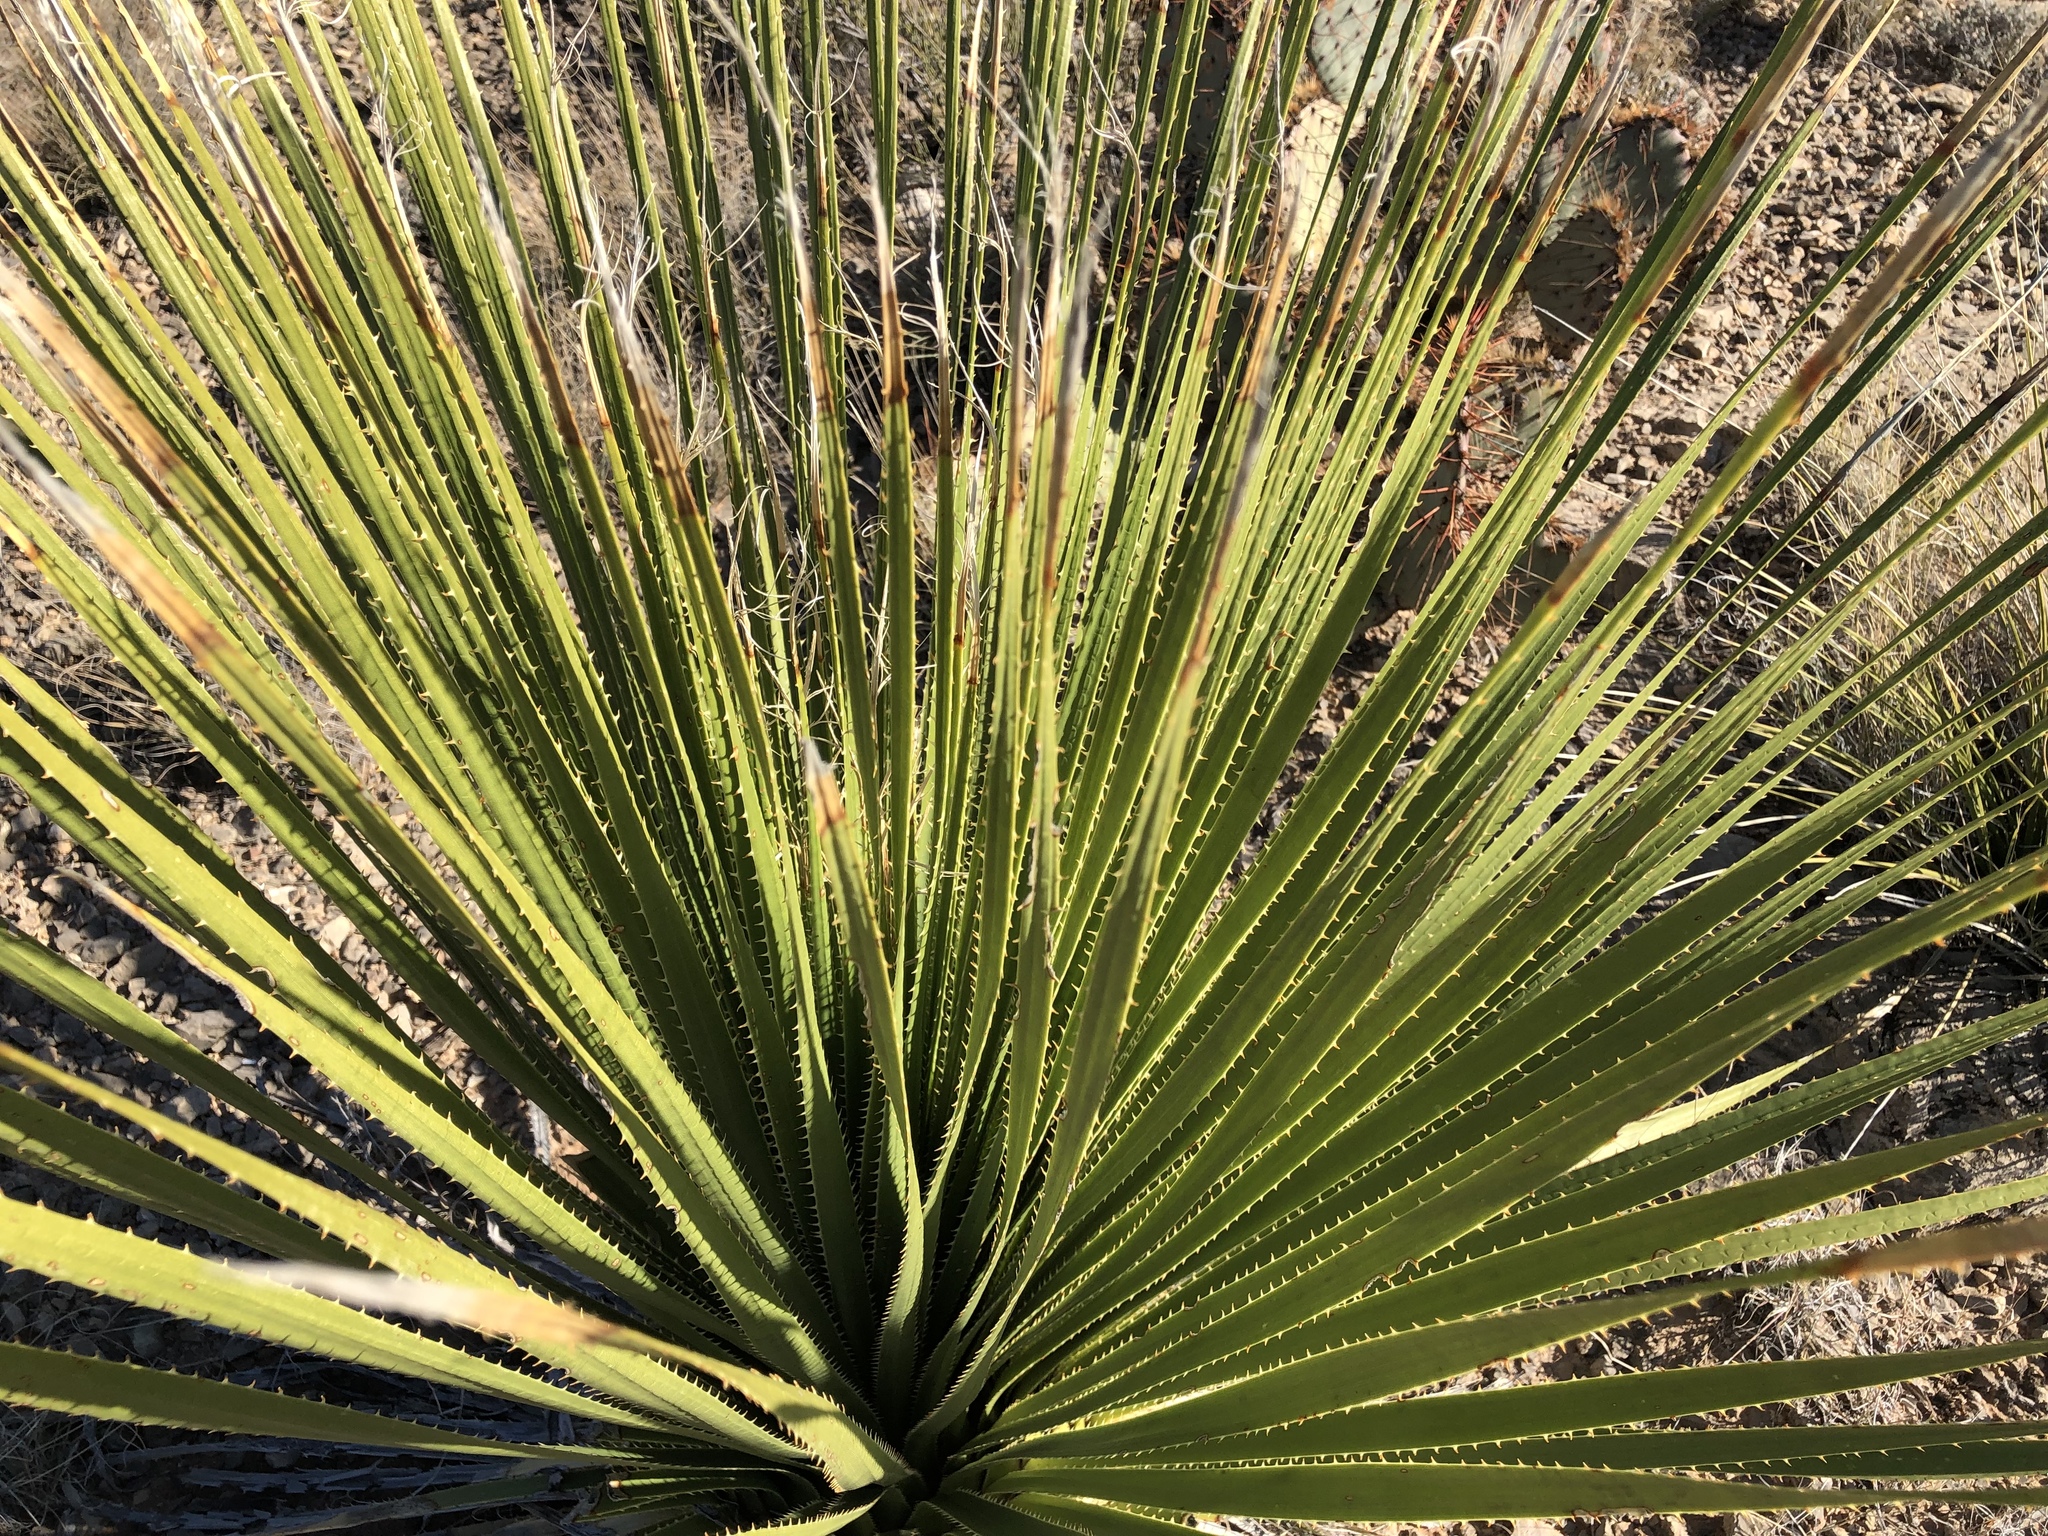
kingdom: Plantae
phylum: Tracheophyta
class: Liliopsida
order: Asparagales
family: Asparagaceae
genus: Dasylirion
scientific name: Dasylirion wheeleri
